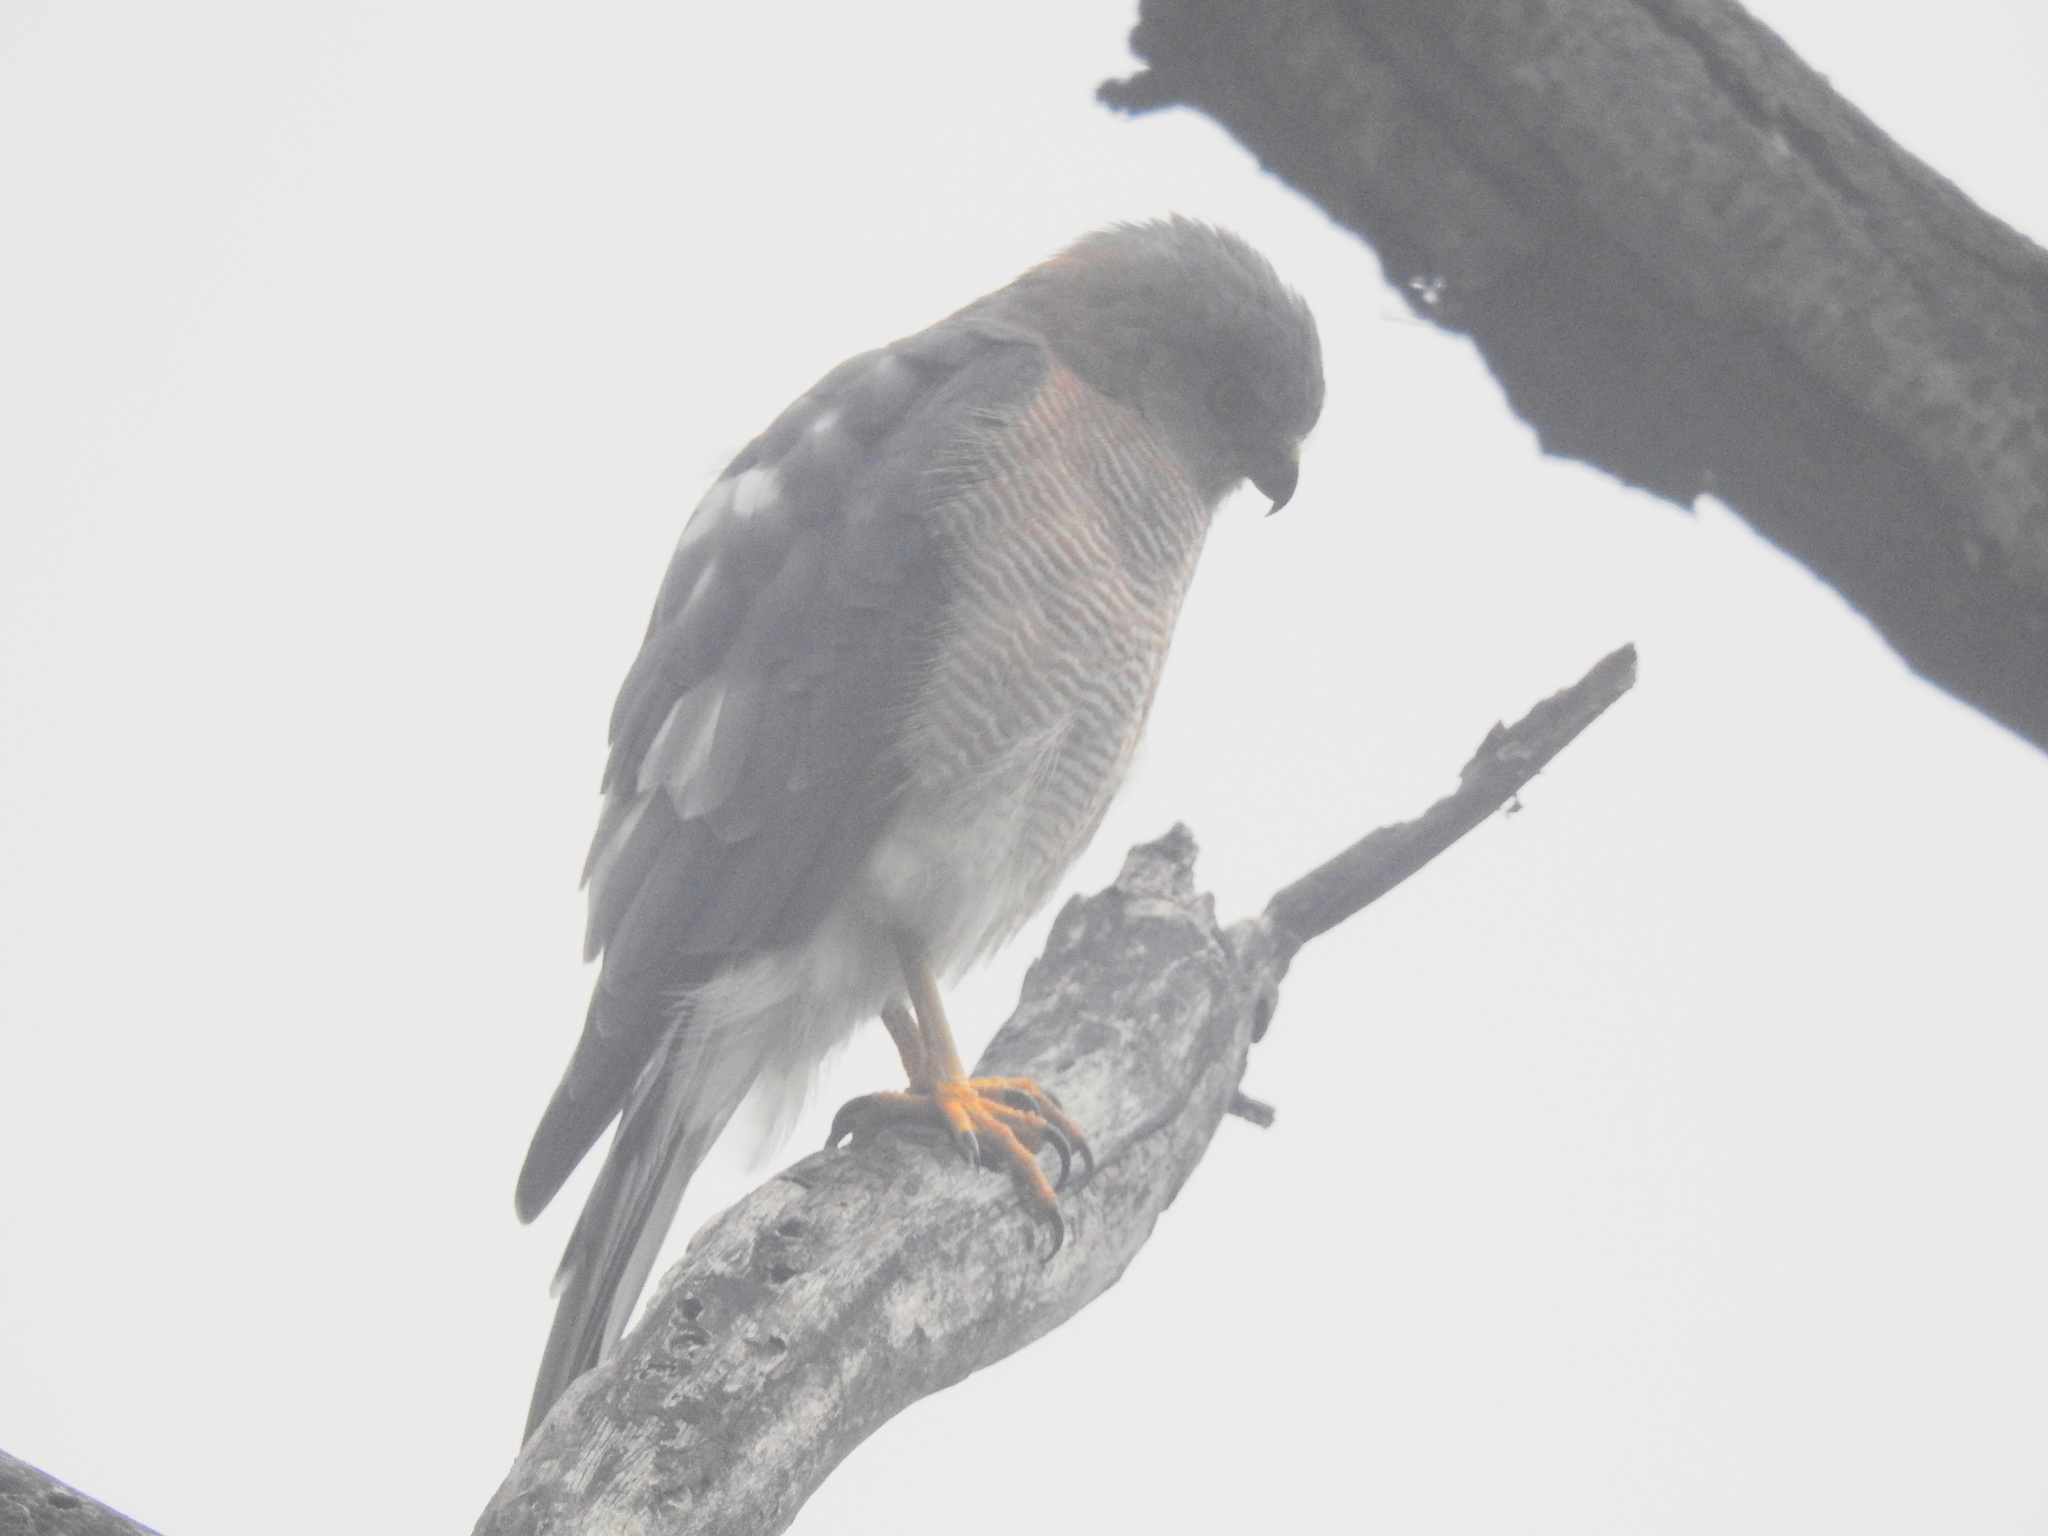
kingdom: Animalia
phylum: Chordata
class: Aves
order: Accipitriformes
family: Accipitridae
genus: Accipiter
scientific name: Accipiter badius
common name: Shikra
